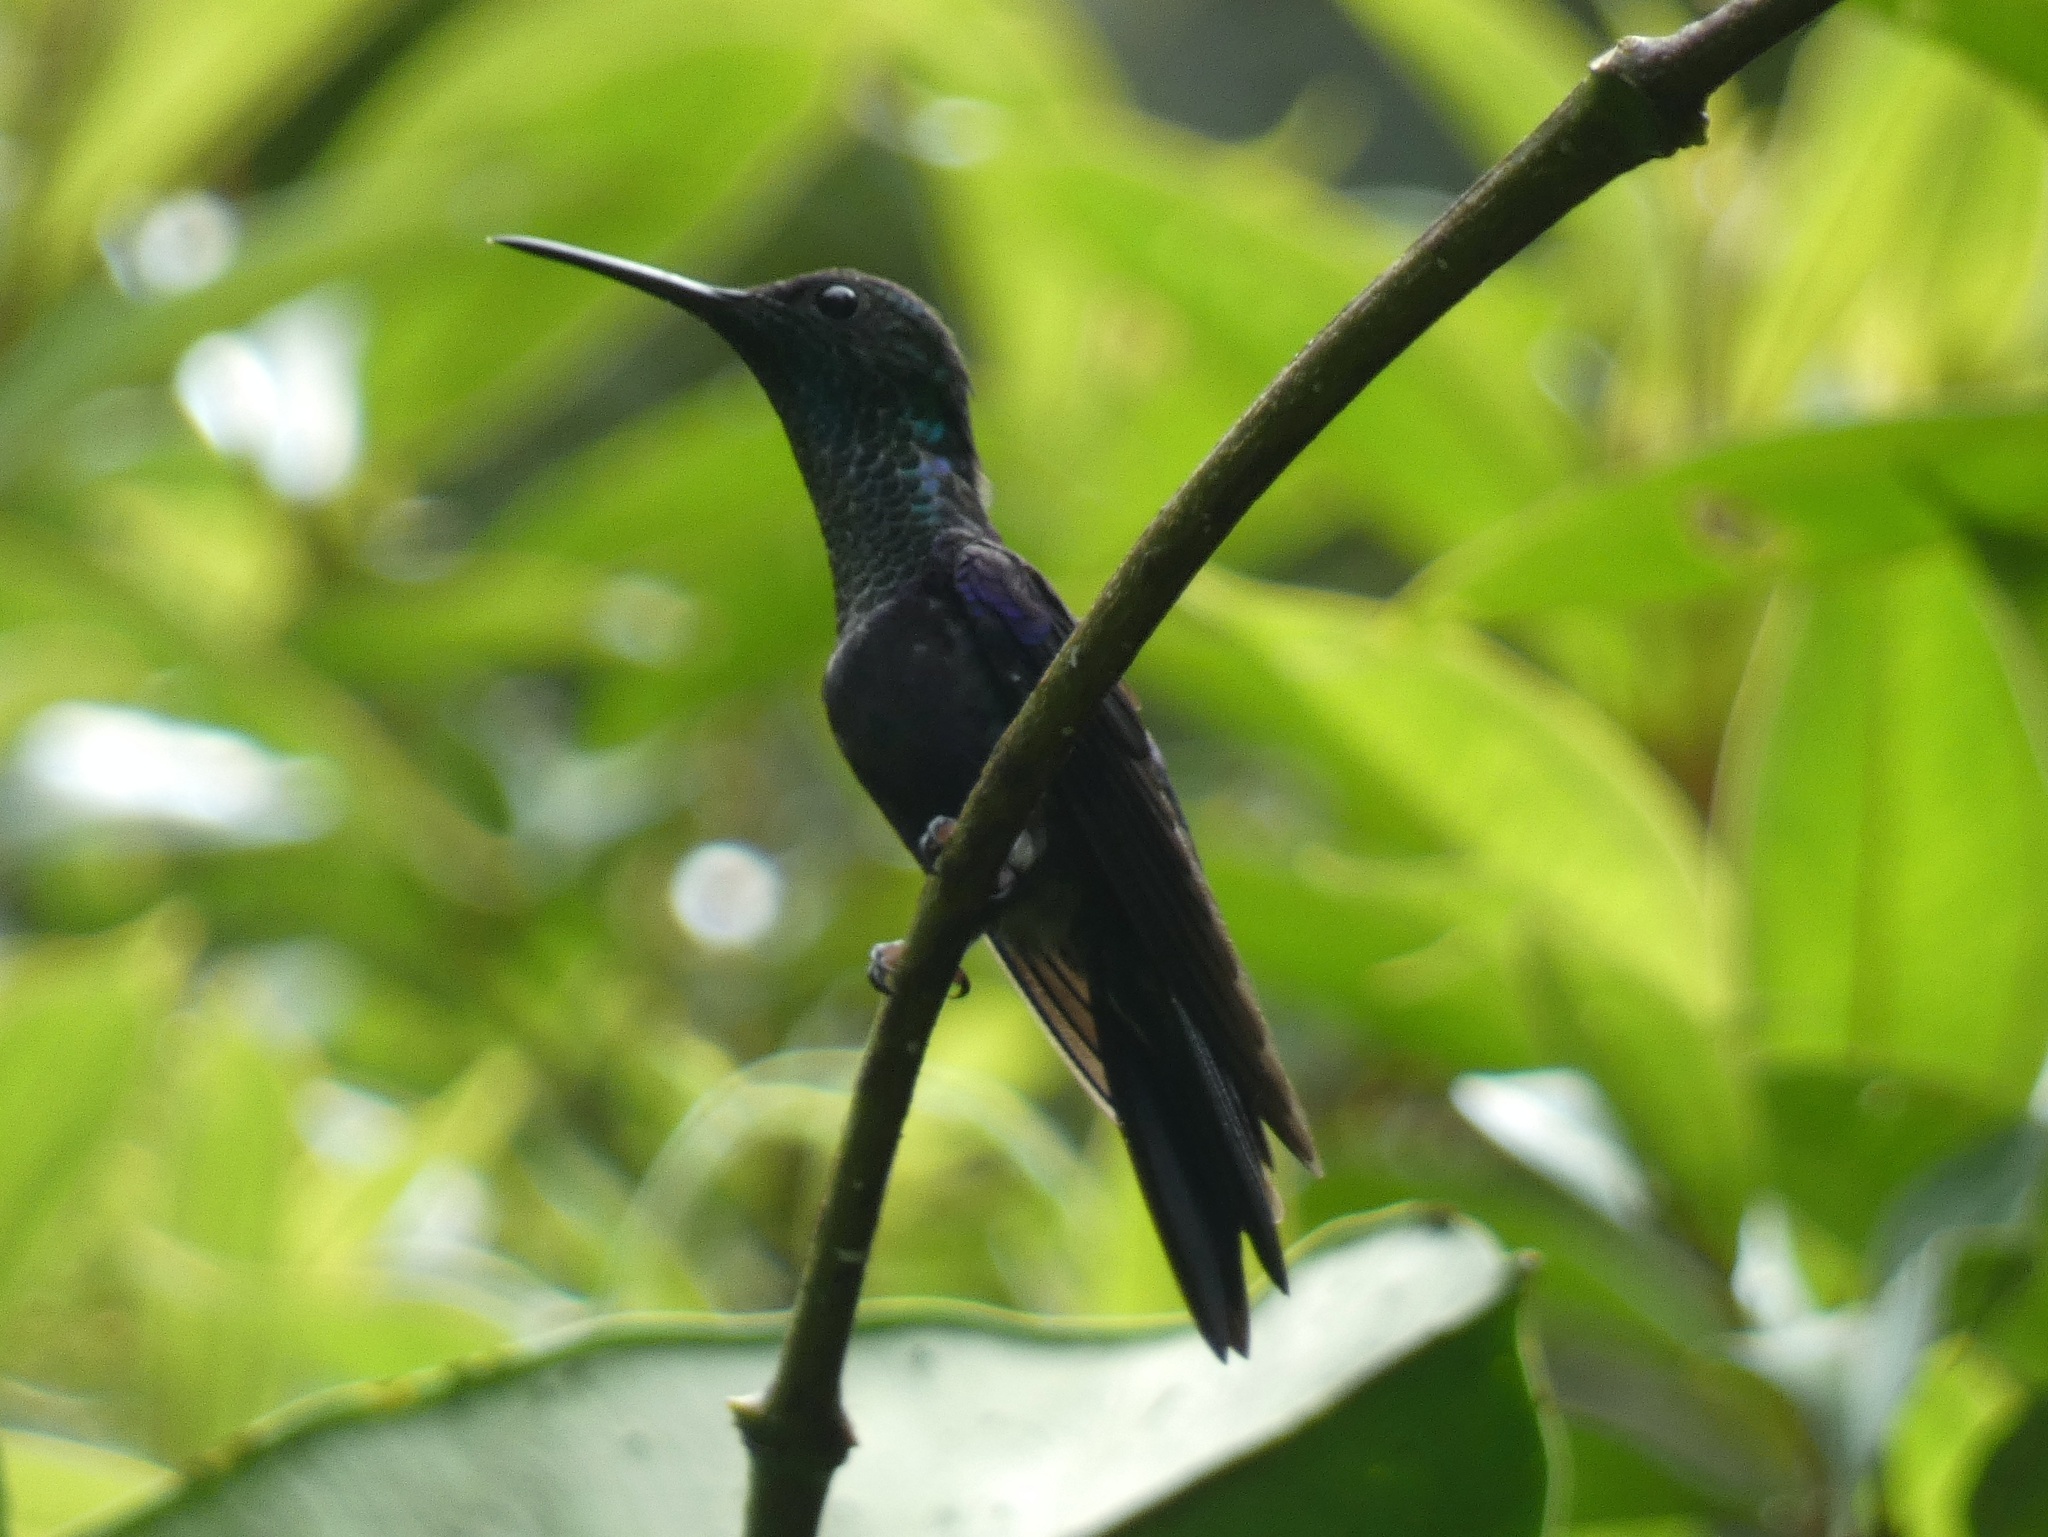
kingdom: Animalia
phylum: Chordata
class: Aves
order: Apodiformes
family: Trochilidae
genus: Thalurania
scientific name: Thalurania colombica
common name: Crowned woodnymph
